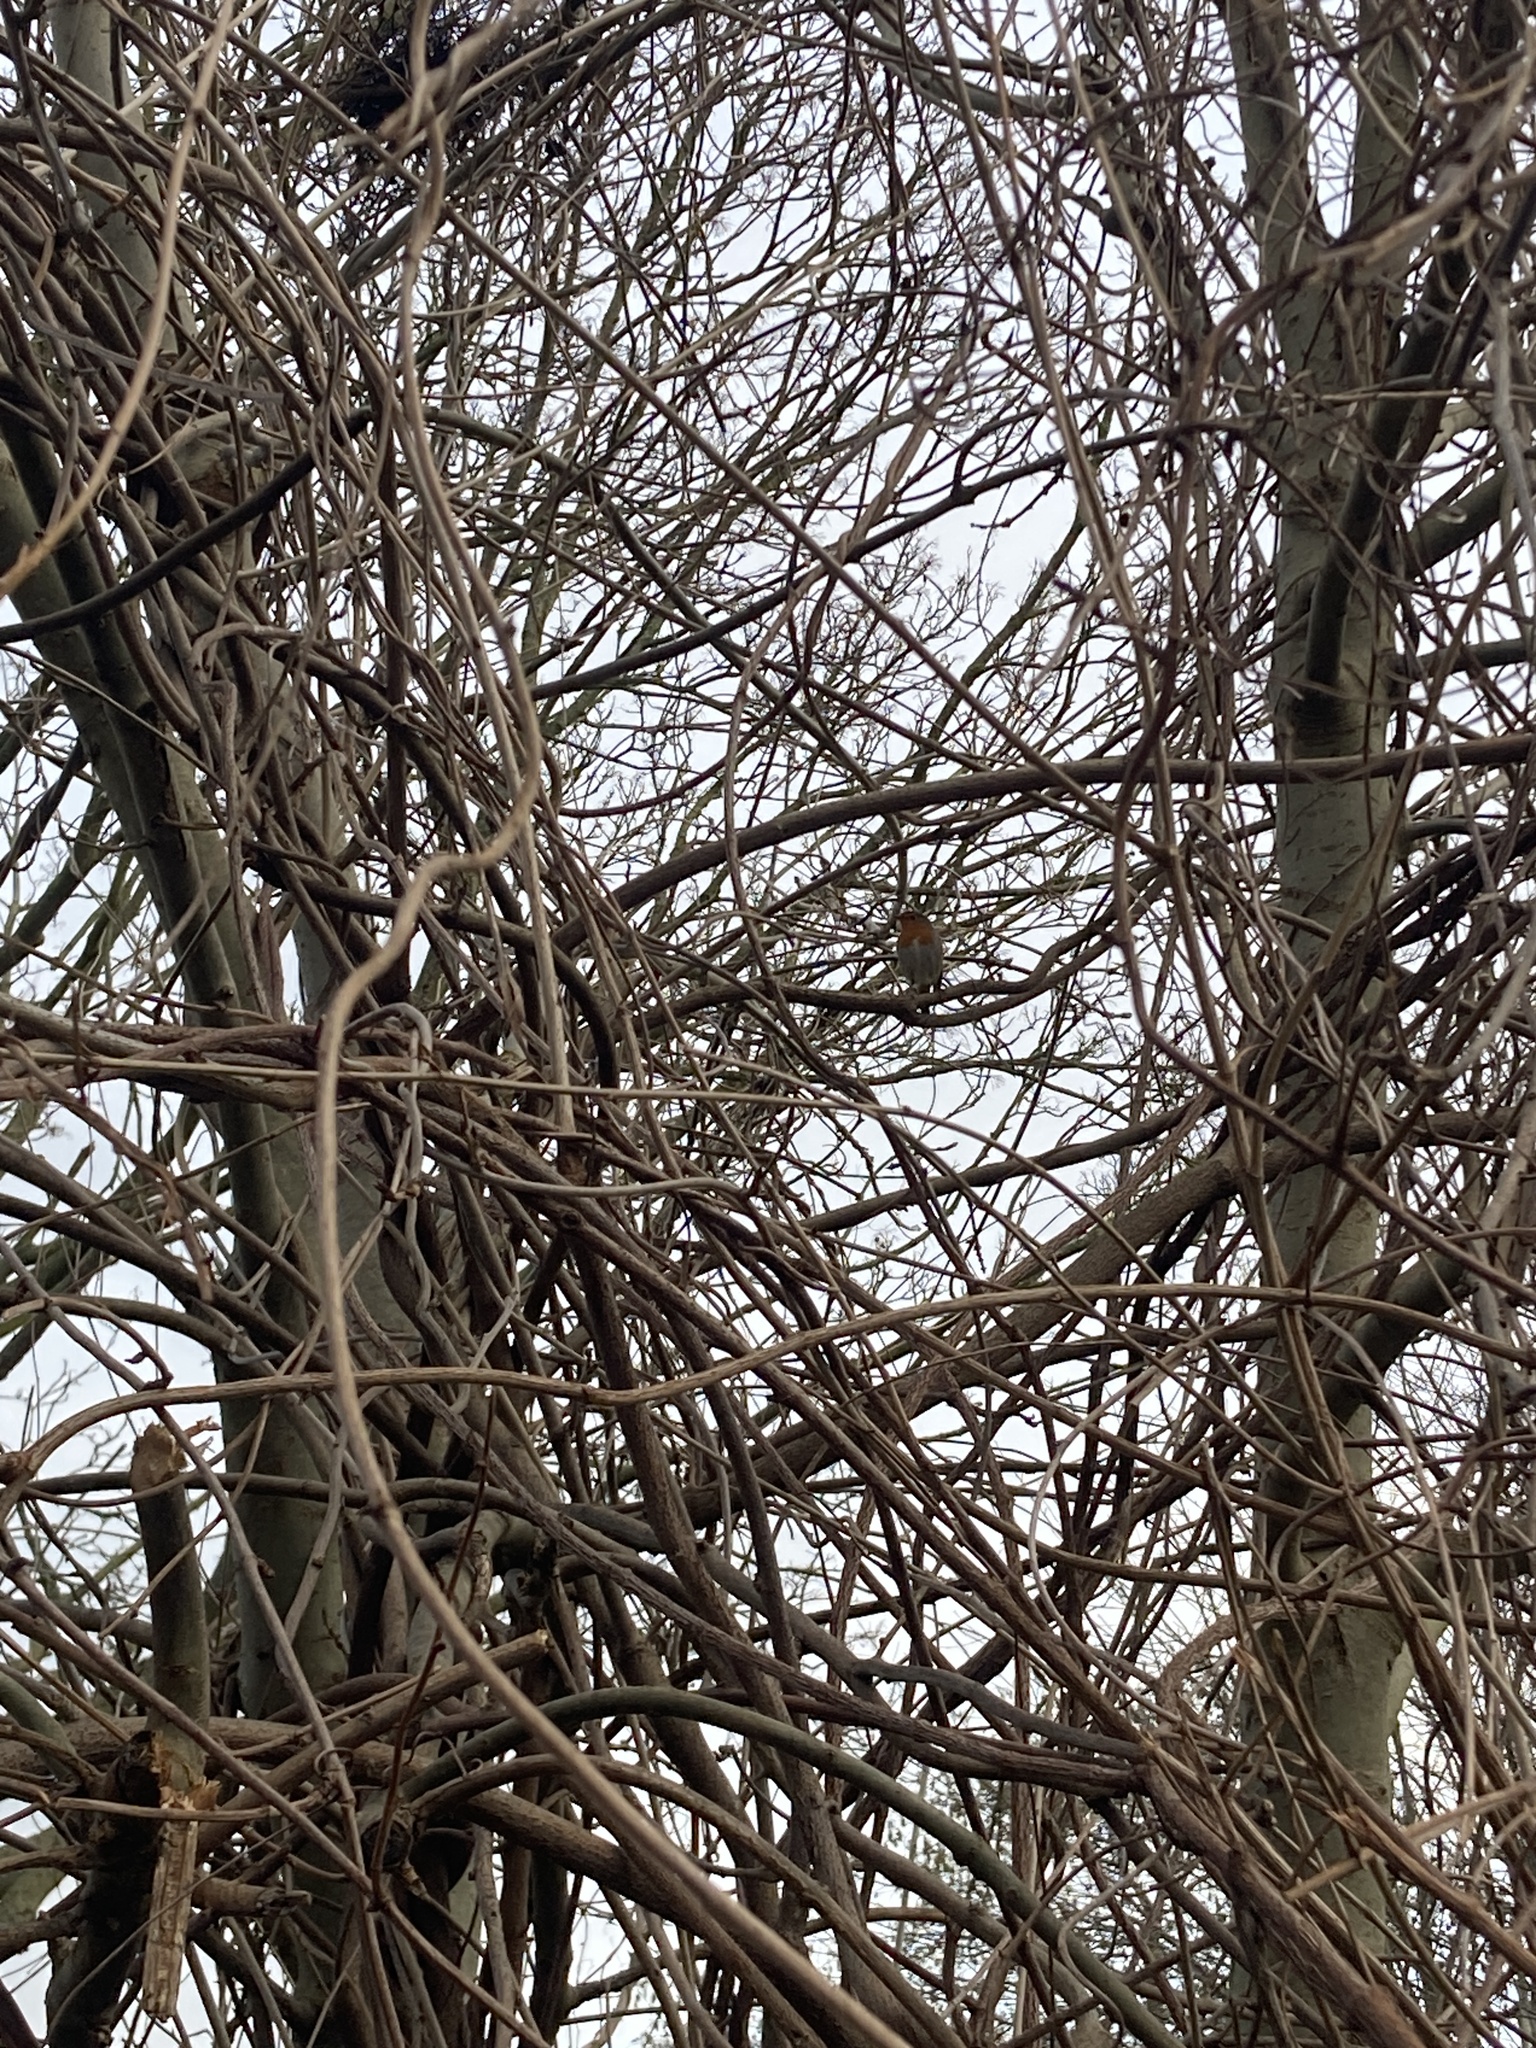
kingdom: Animalia
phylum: Chordata
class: Aves
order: Passeriformes
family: Muscicapidae
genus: Erithacus
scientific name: Erithacus rubecula
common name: European robin
